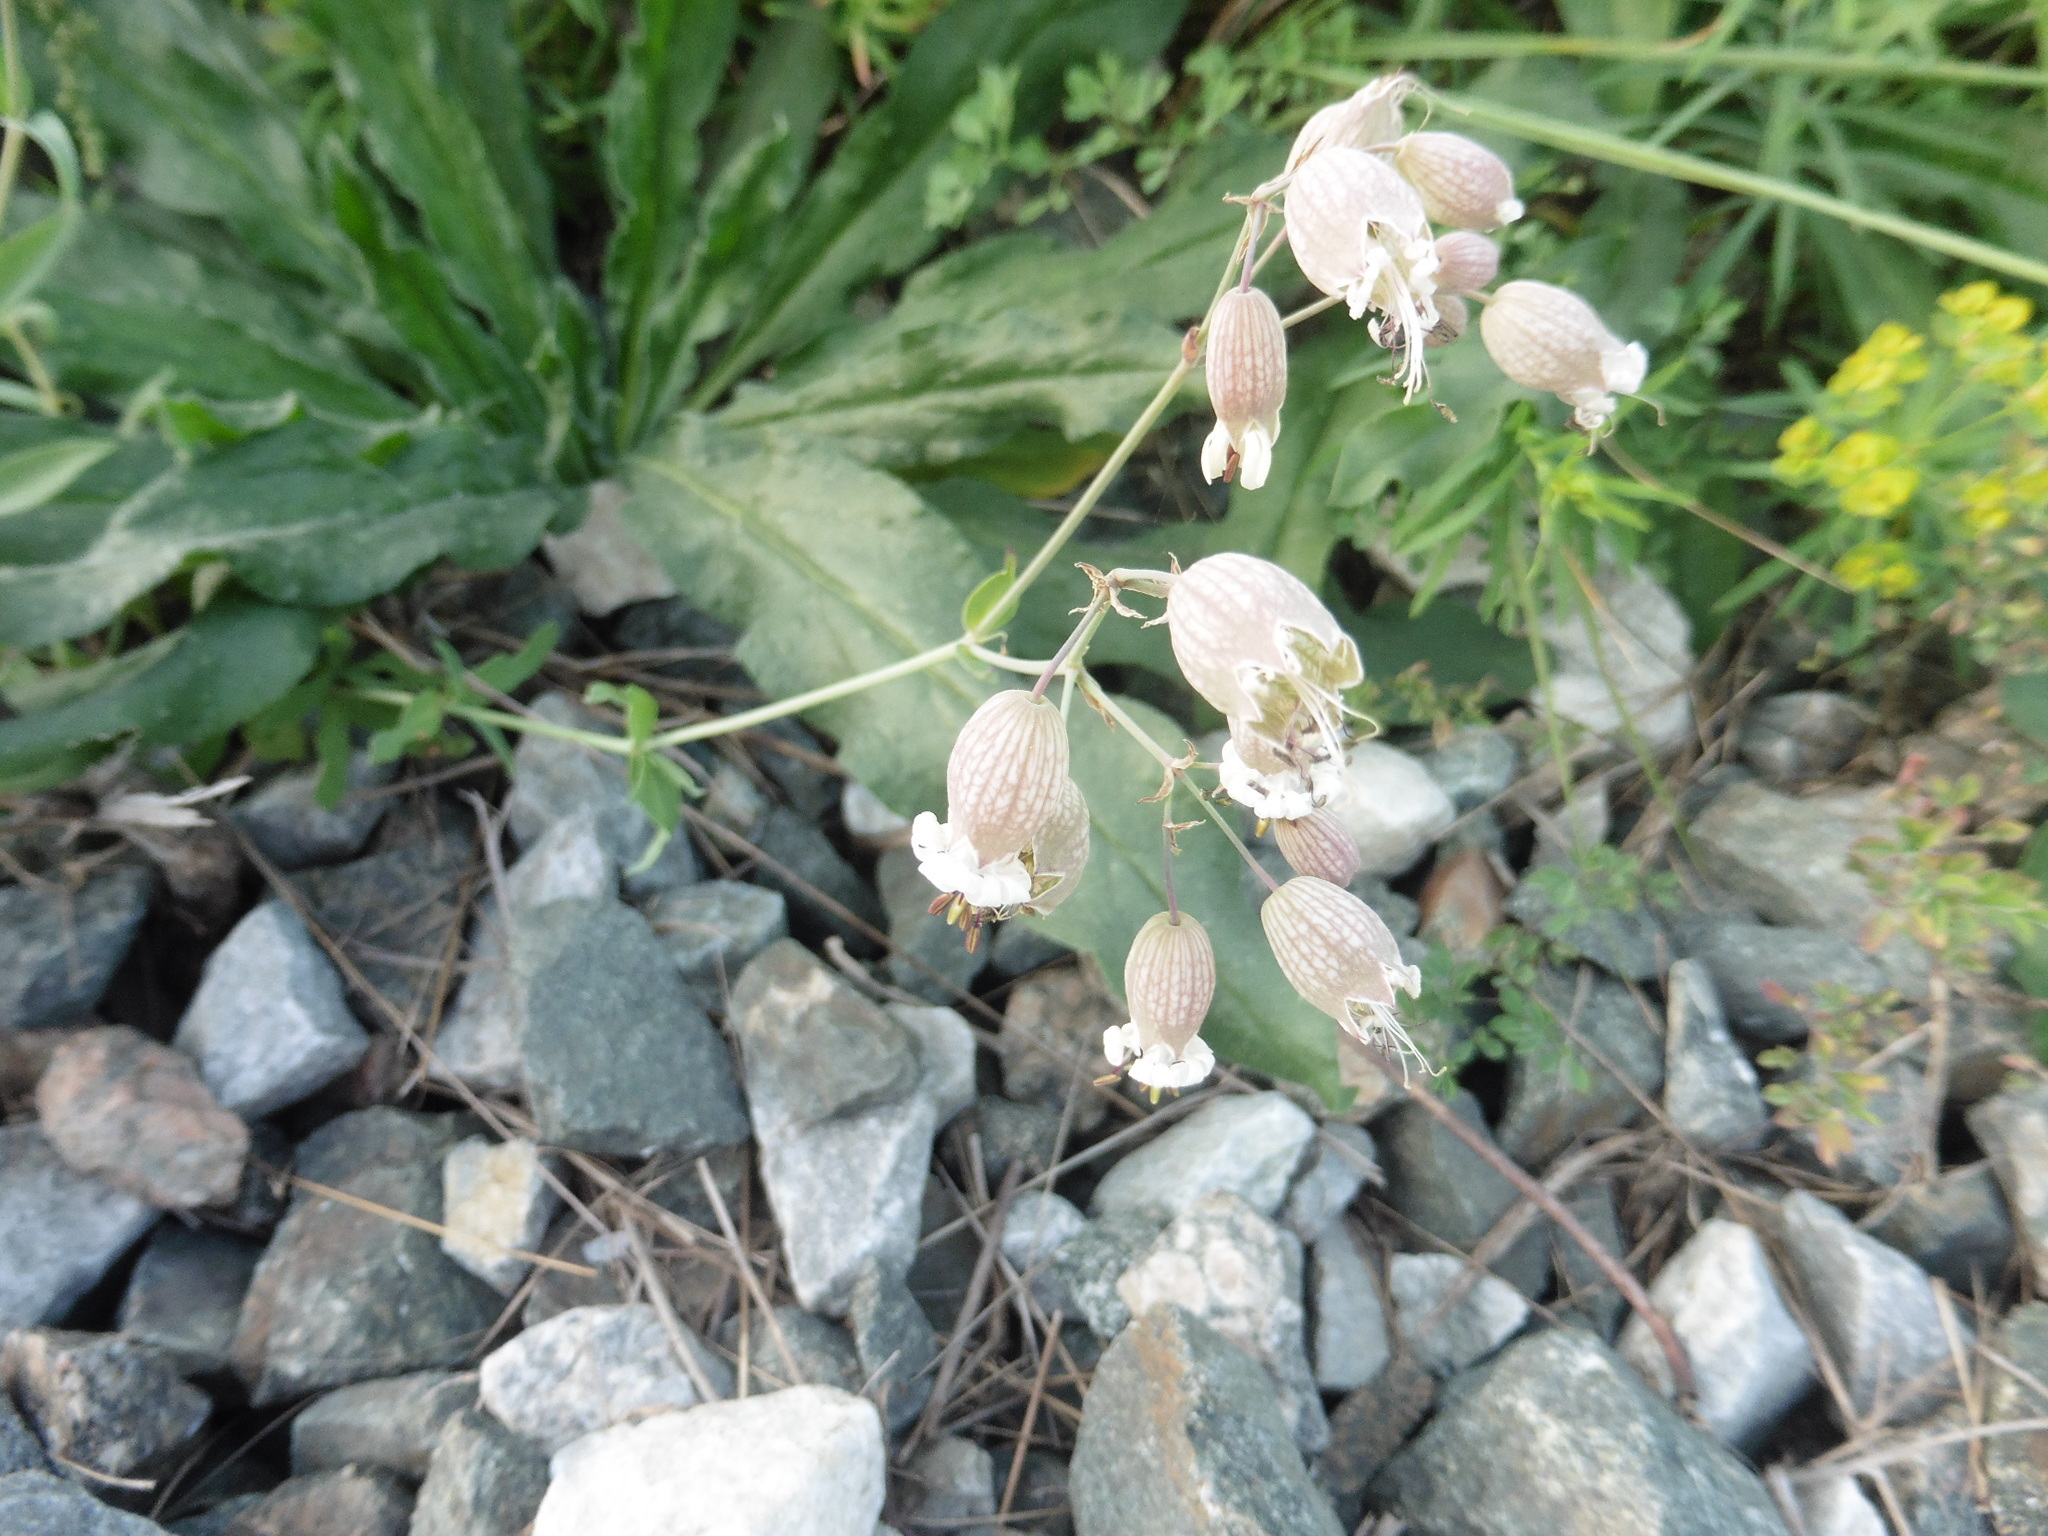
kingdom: Plantae
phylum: Tracheophyta
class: Magnoliopsida
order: Caryophyllales
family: Caryophyllaceae
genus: Silene
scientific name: Silene vulgaris
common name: Bladder campion
